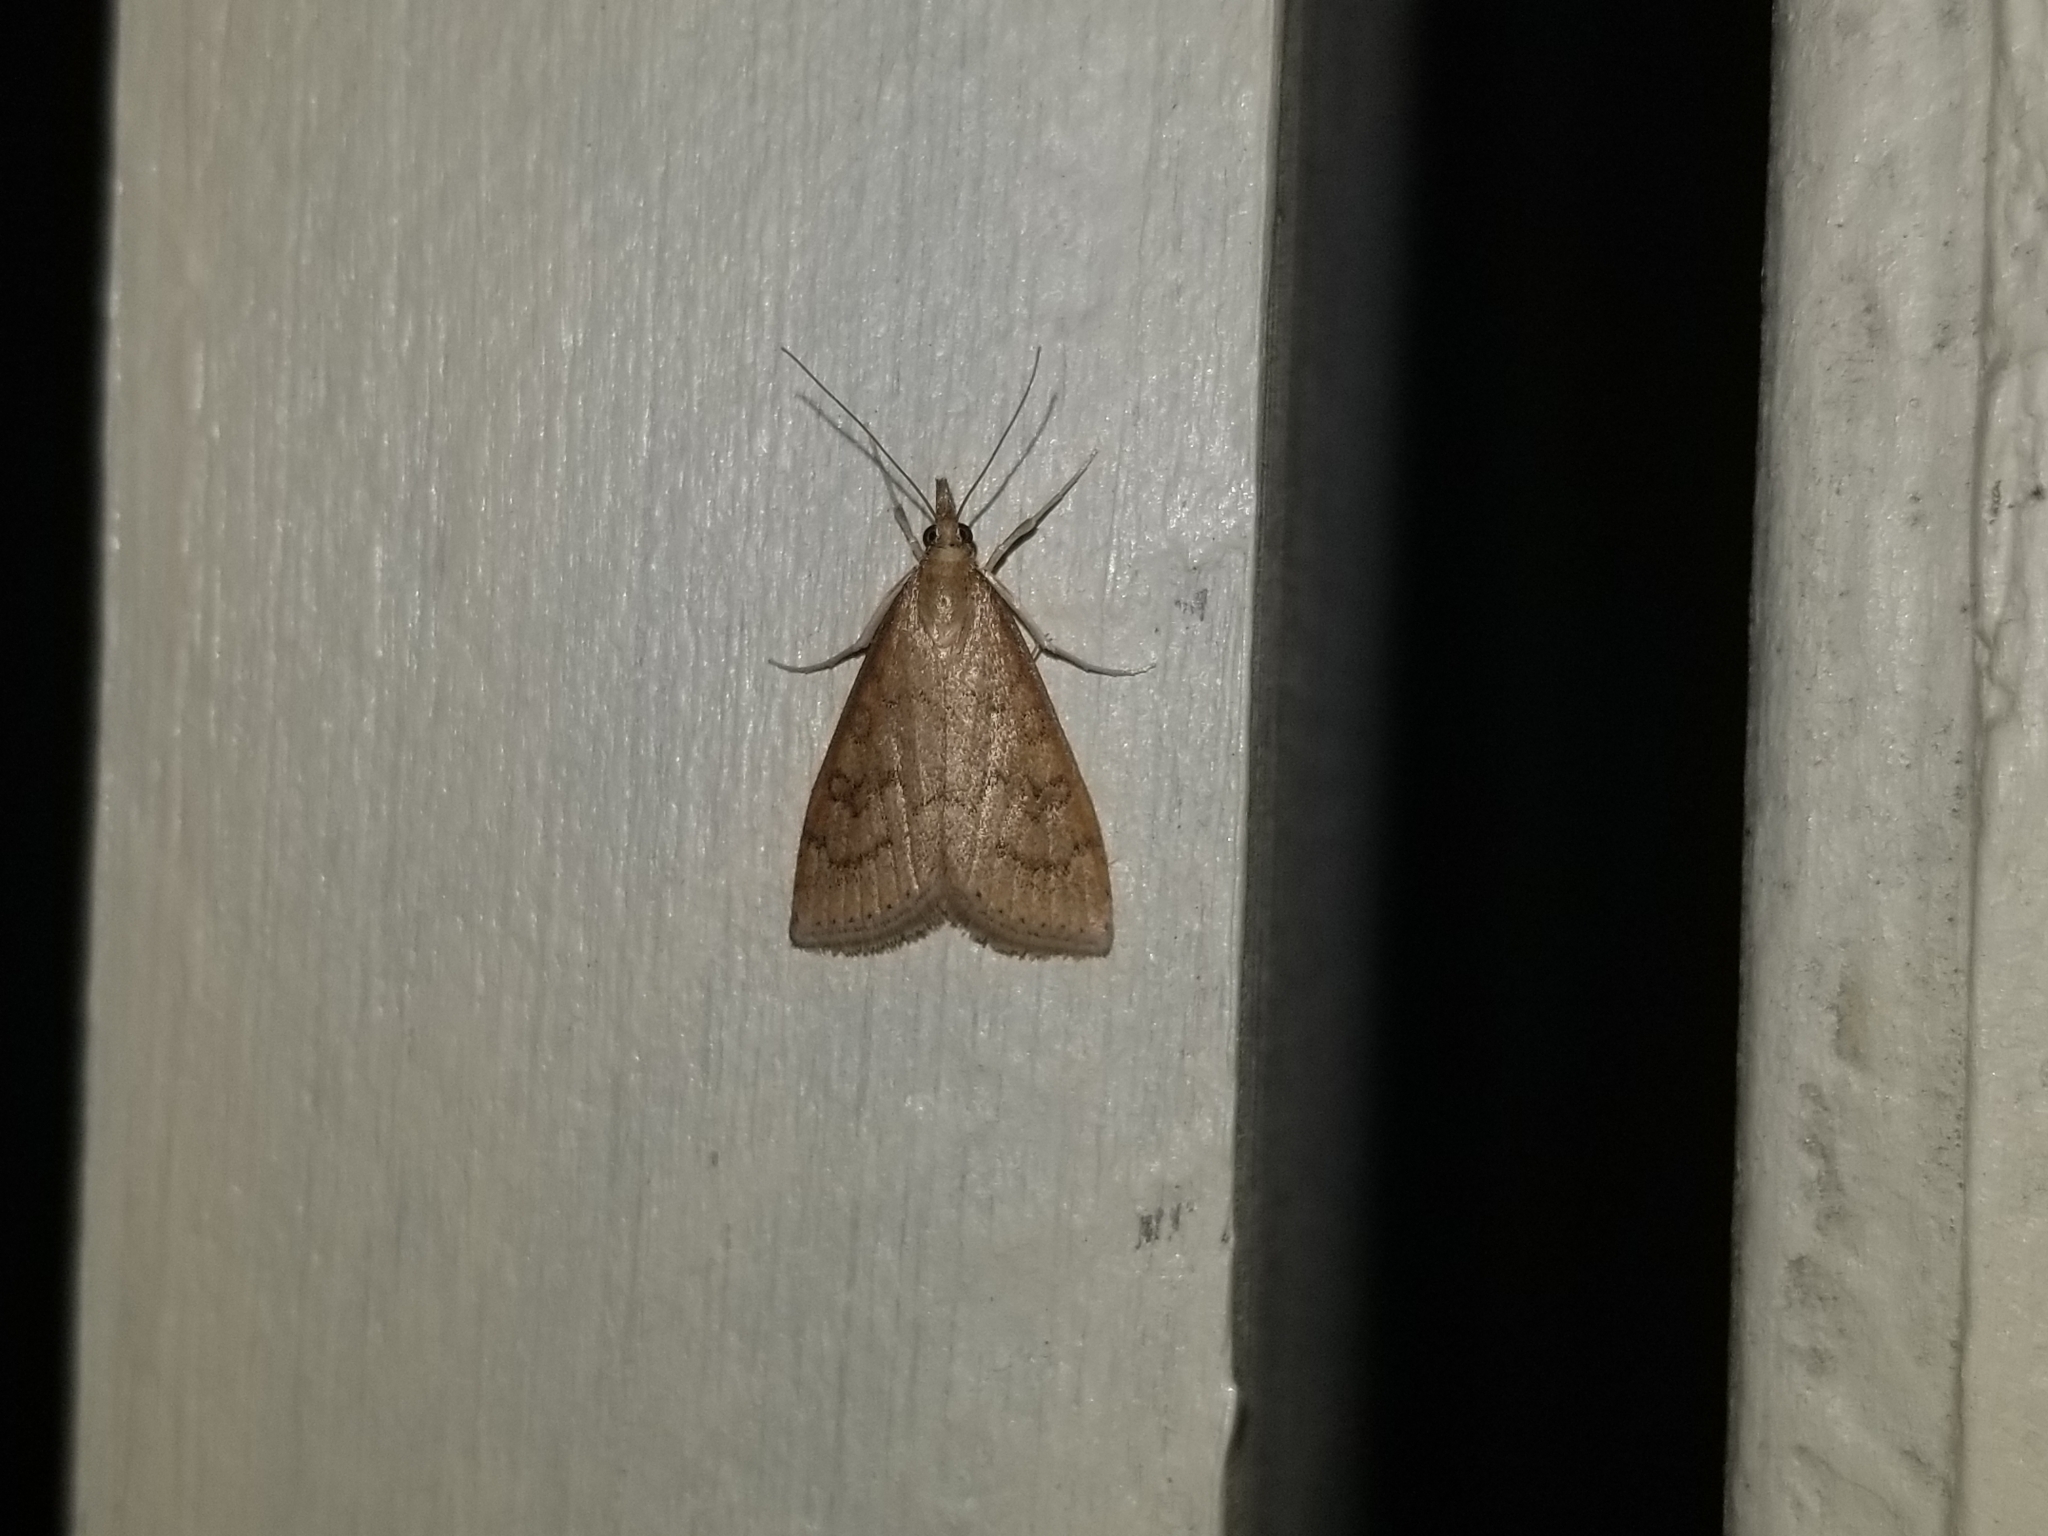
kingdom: Animalia
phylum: Arthropoda
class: Insecta
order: Lepidoptera
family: Crambidae
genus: Udea
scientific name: Udea rubigalis
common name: Celery leaftier moth
